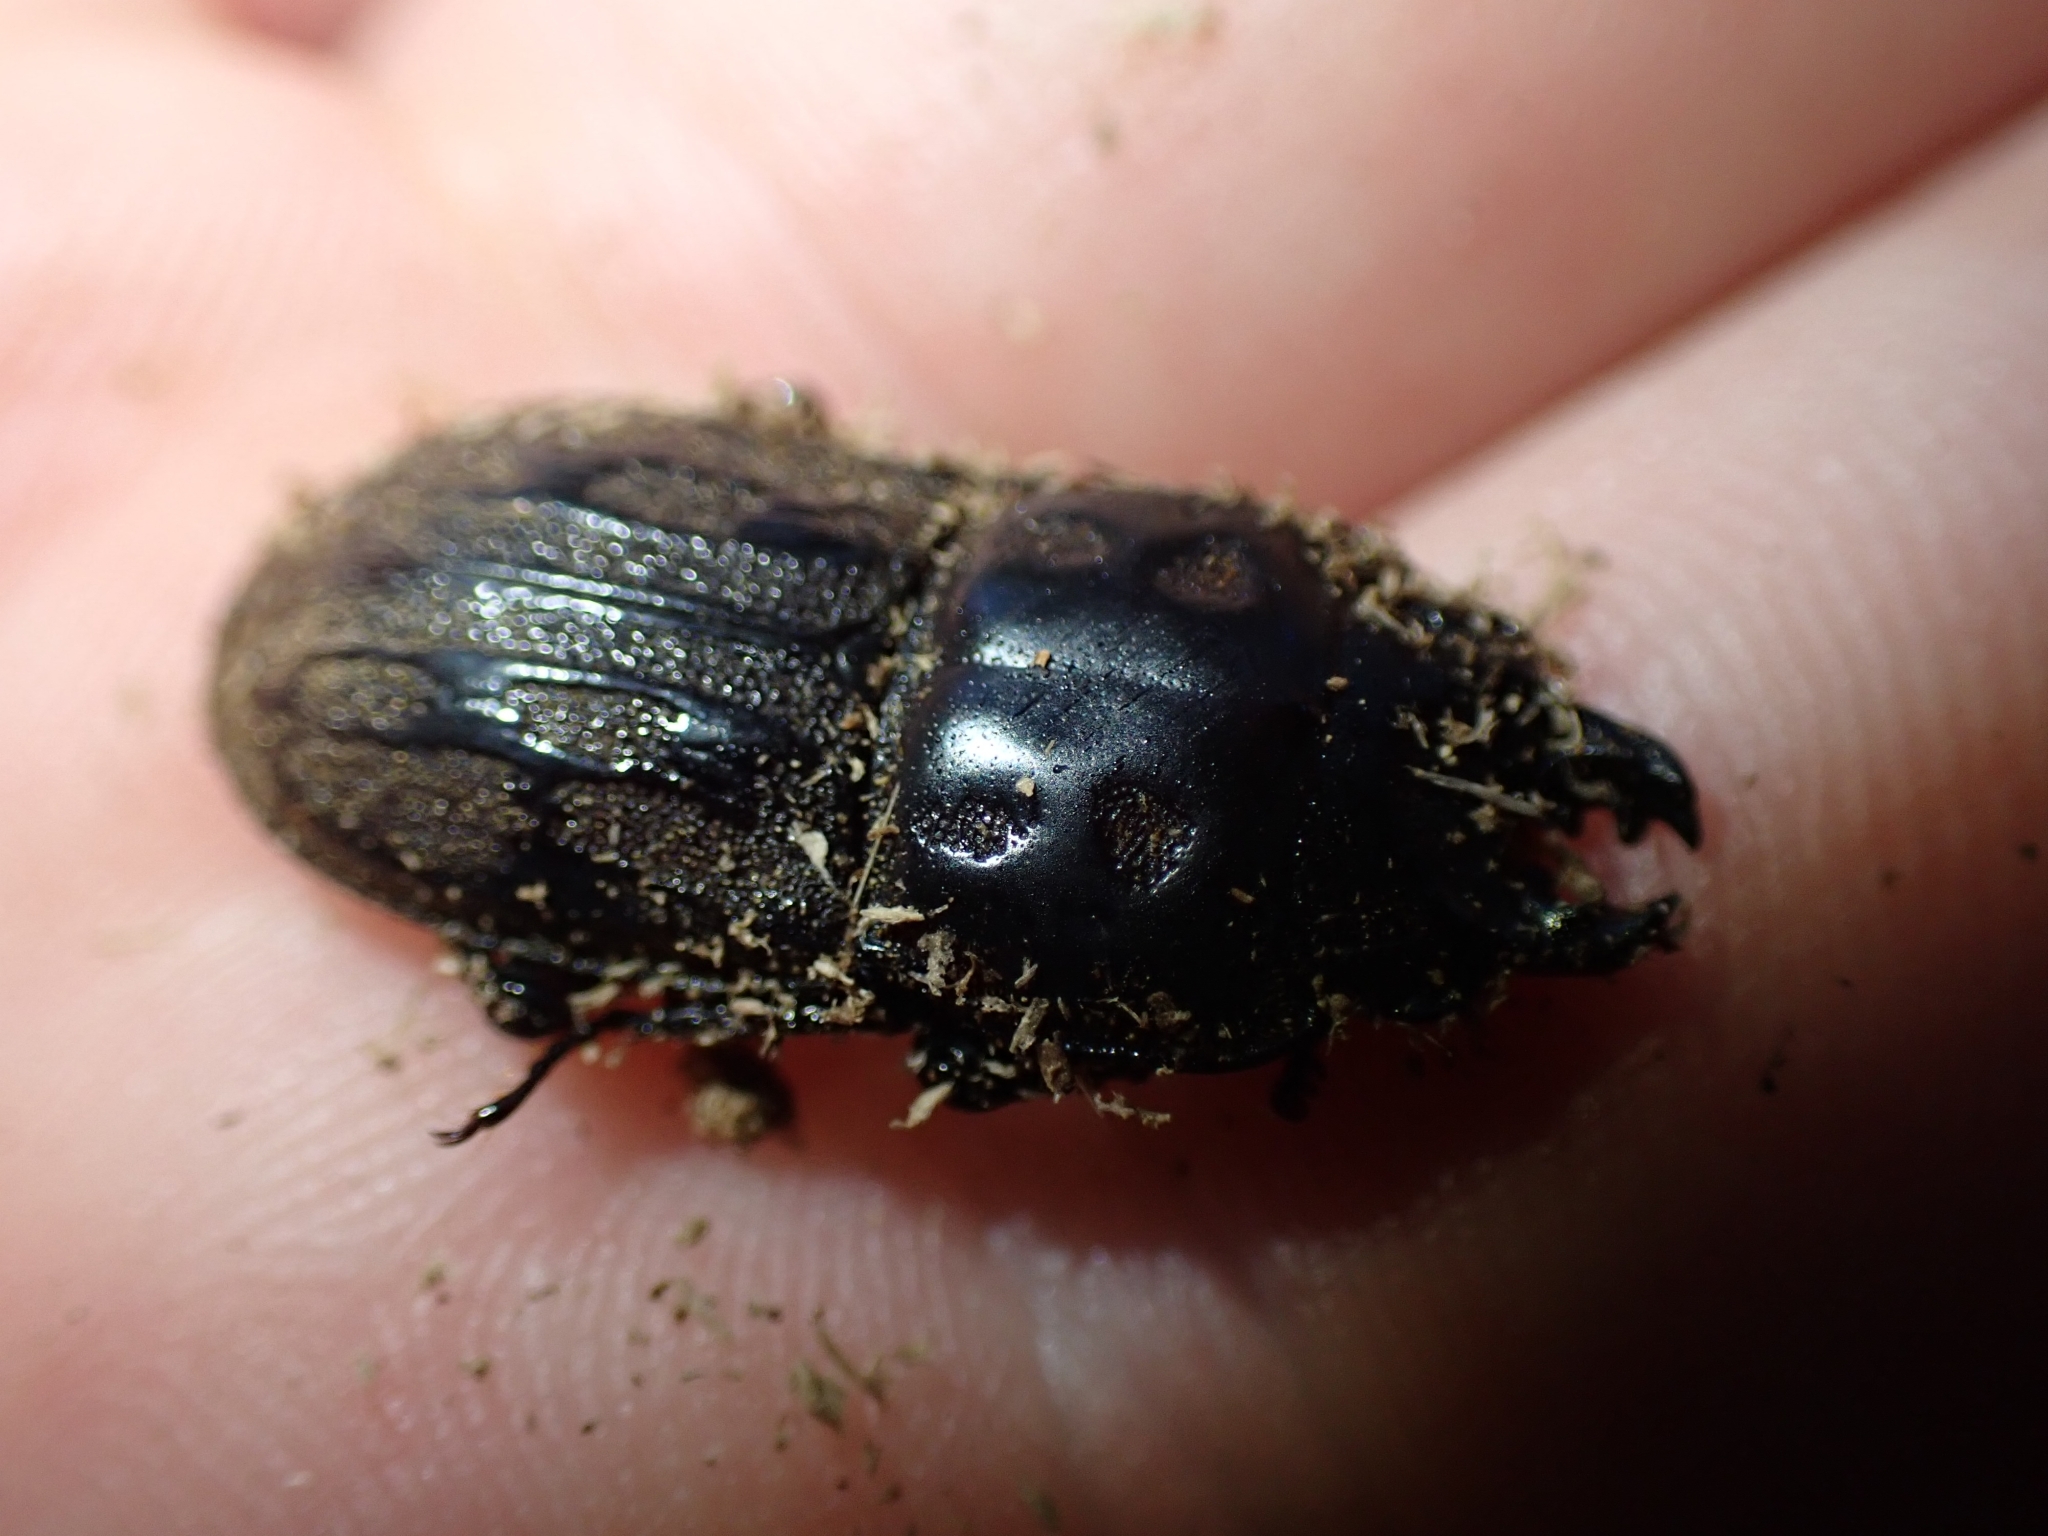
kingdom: Animalia
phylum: Arthropoda
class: Insecta
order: Coleoptera
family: Lucanidae
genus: Paralissotes
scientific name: Paralissotes reticulatus
